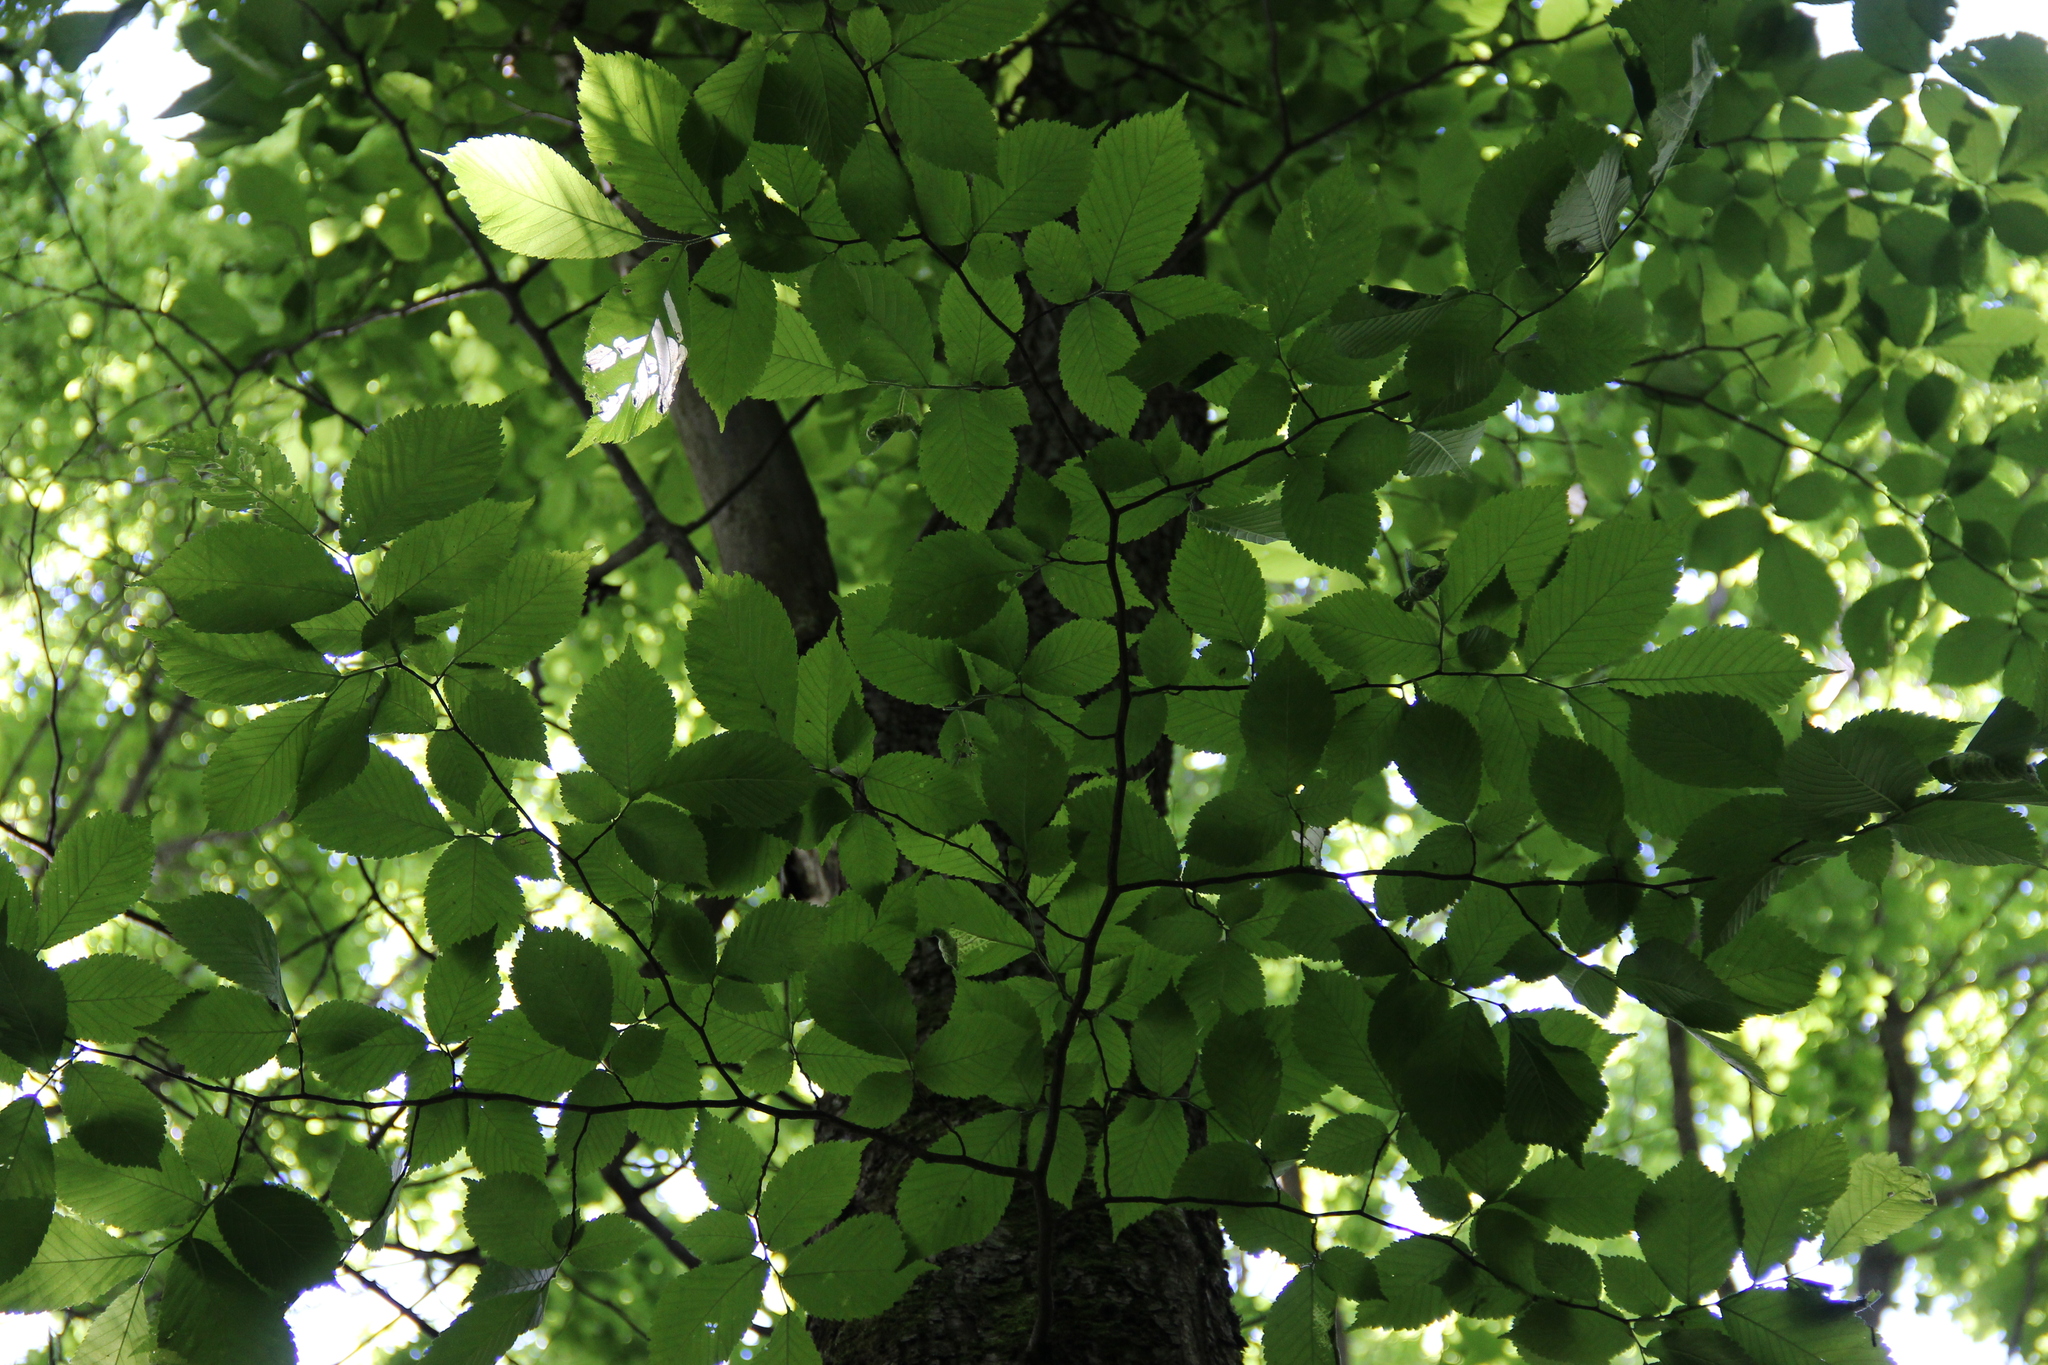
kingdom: Plantae
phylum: Tracheophyta
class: Magnoliopsida
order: Rosales
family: Ulmaceae
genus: Ulmus
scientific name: Ulmus glabra
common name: Wych elm
